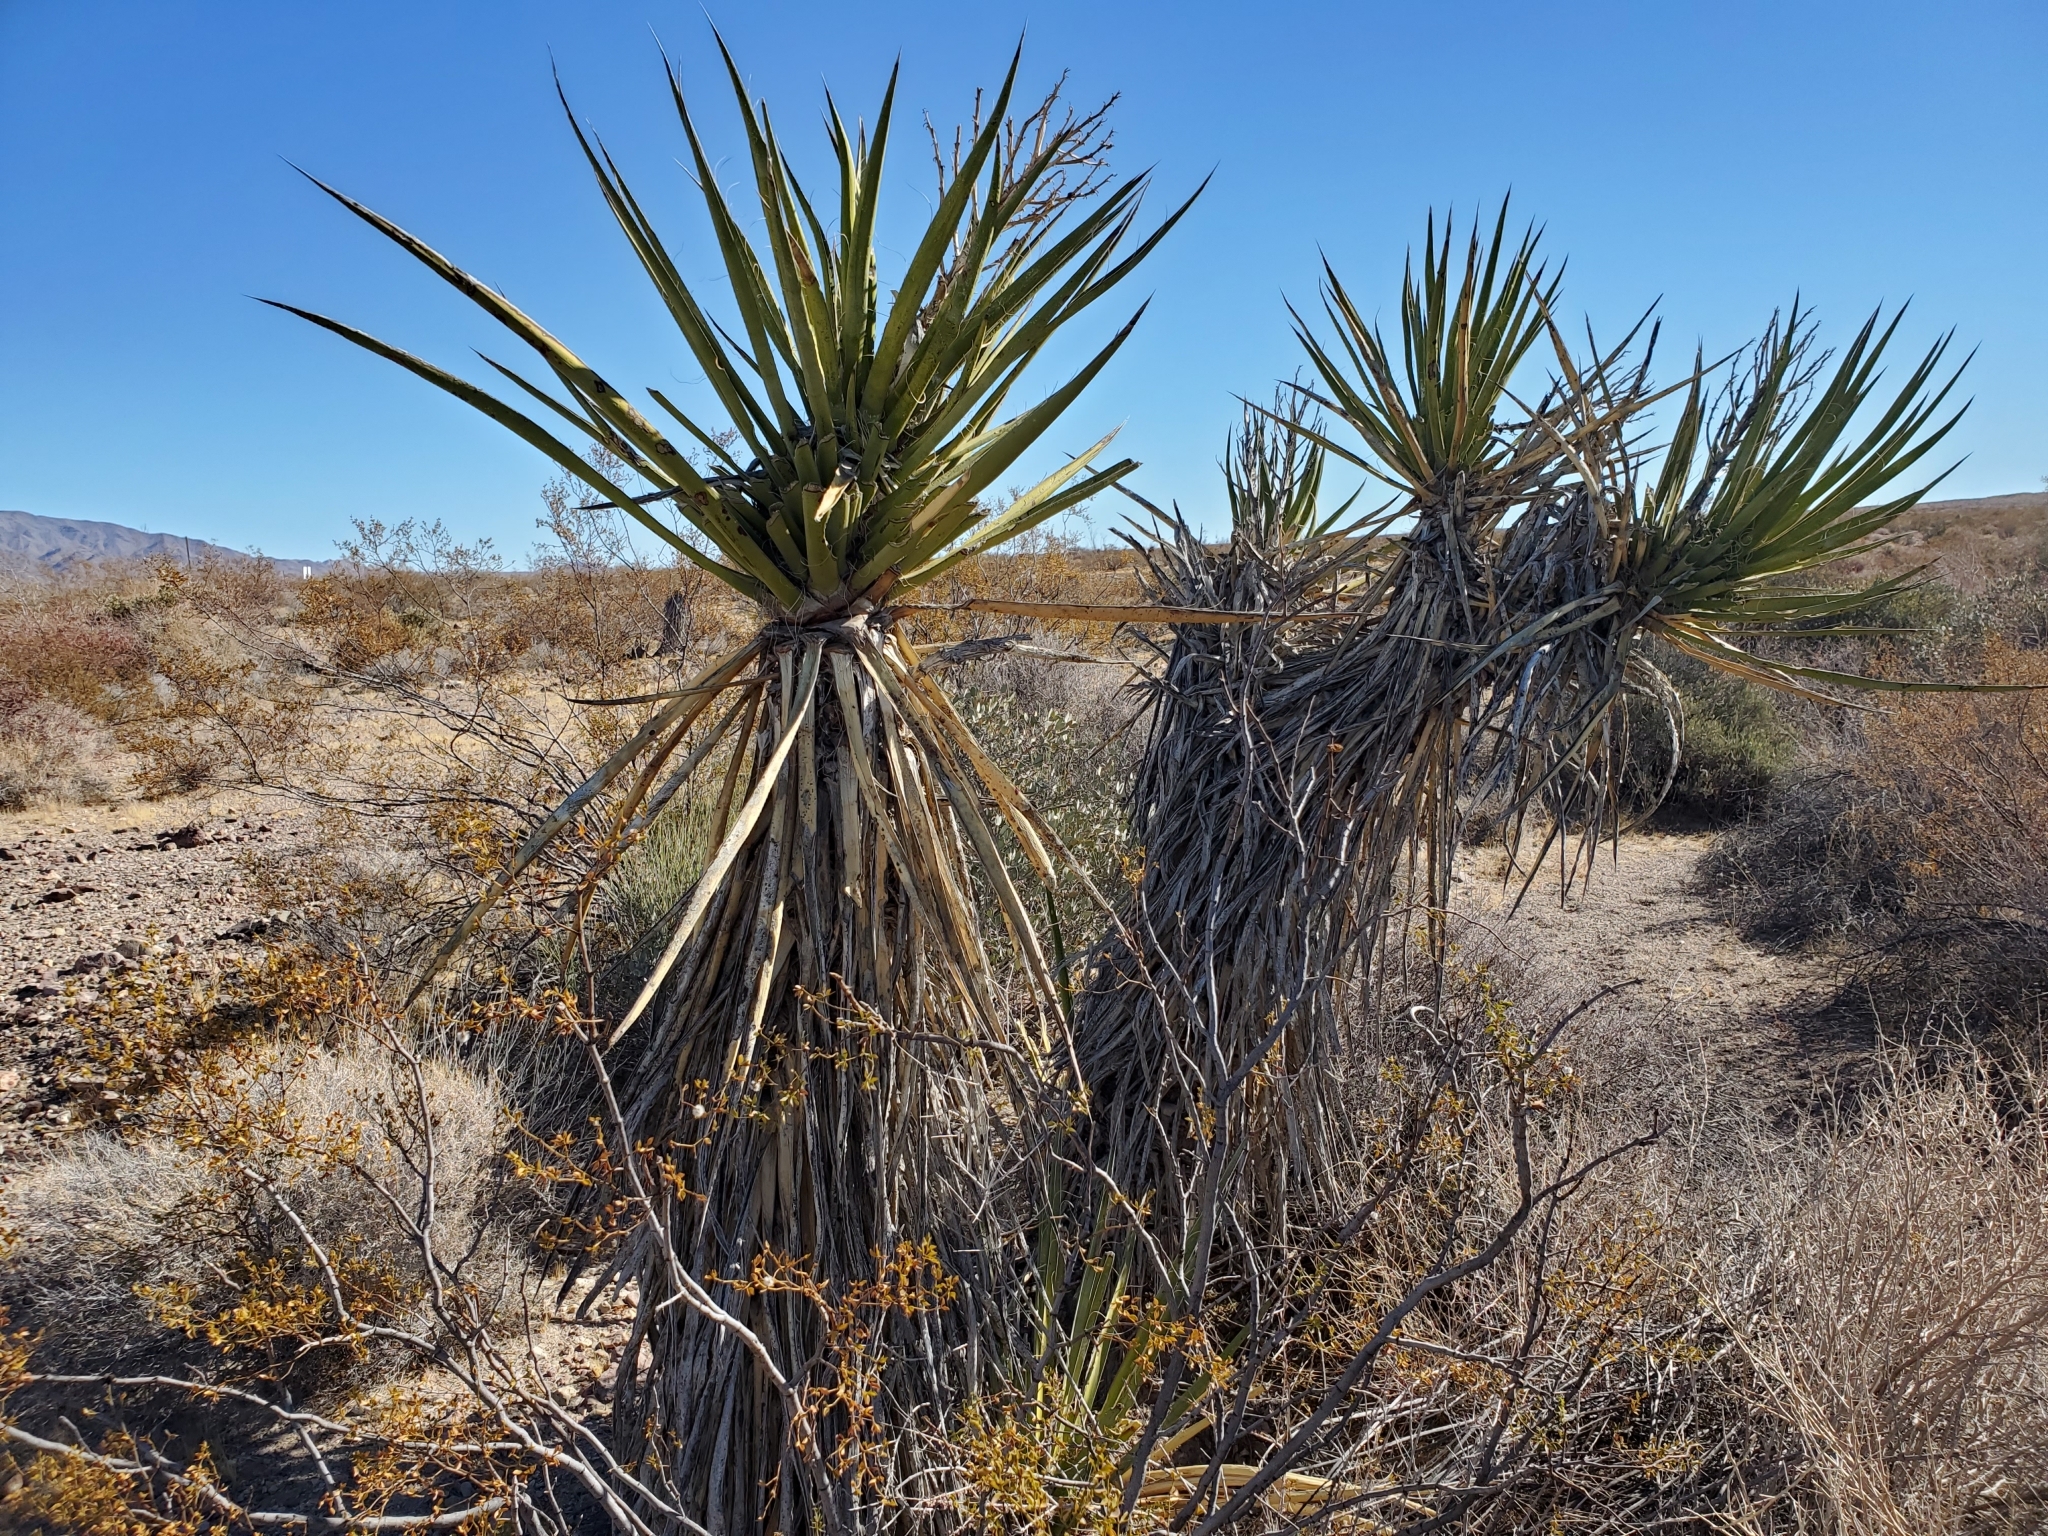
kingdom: Plantae
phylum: Tracheophyta
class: Liliopsida
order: Asparagales
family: Asparagaceae
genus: Yucca
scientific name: Yucca schidigera
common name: Mojave yucca
